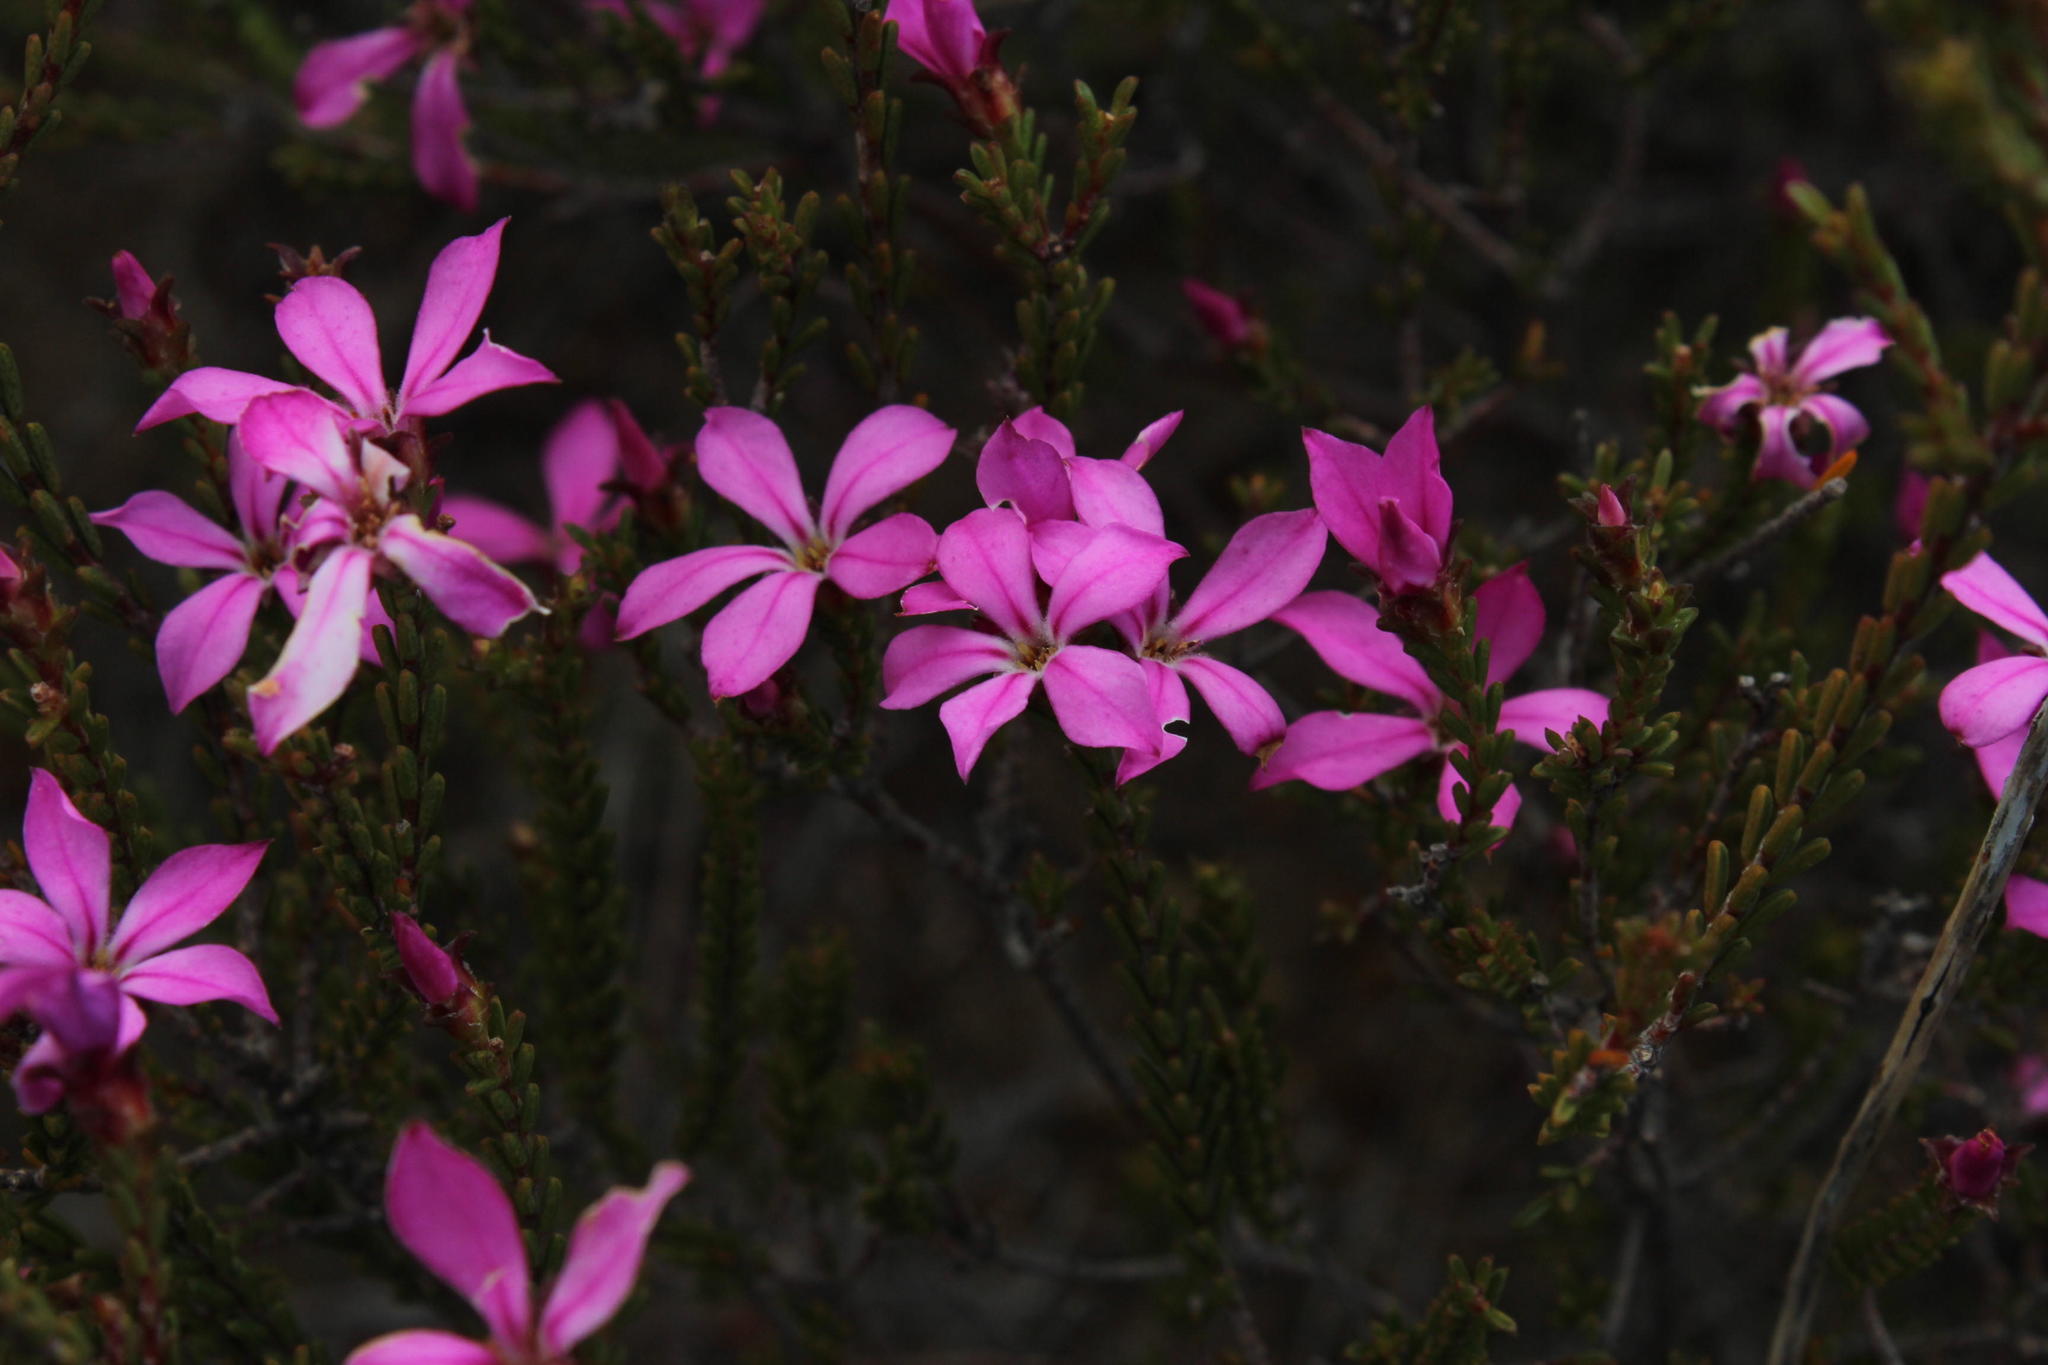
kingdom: Plantae
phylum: Tracheophyta
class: Magnoliopsida
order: Sapindales
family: Rutaceae
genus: Acmadenia
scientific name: Acmadenia sheilae
